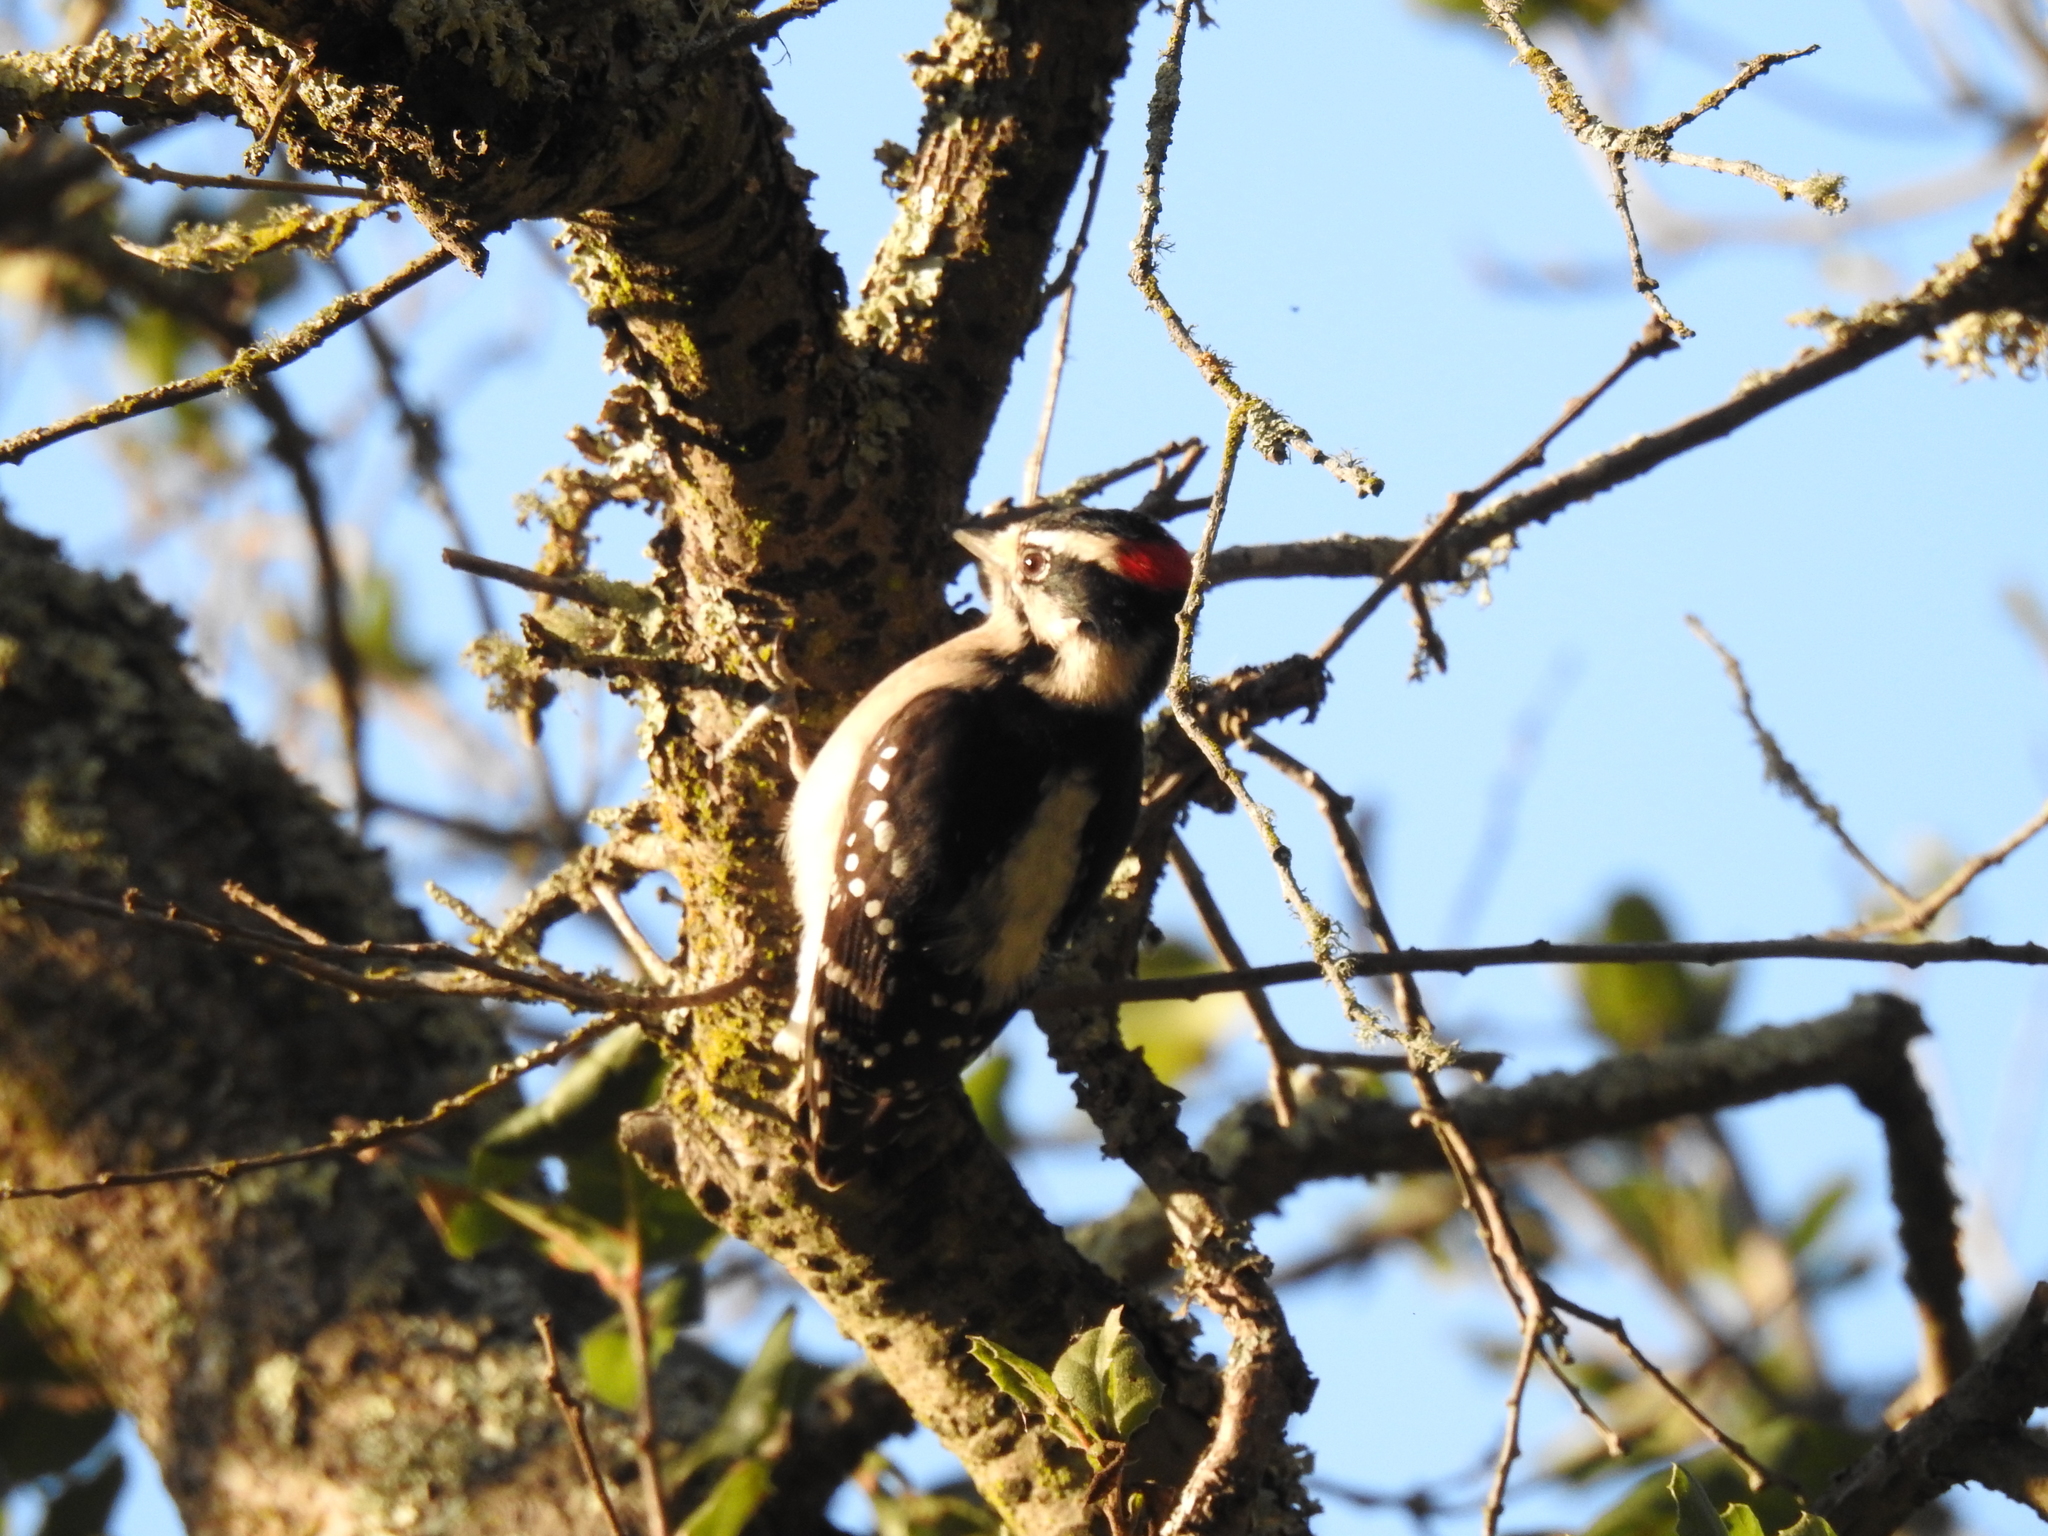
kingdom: Animalia
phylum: Chordata
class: Aves
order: Piciformes
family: Picidae
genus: Dryobates
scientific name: Dryobates pubescens
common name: Downy woodpecker
